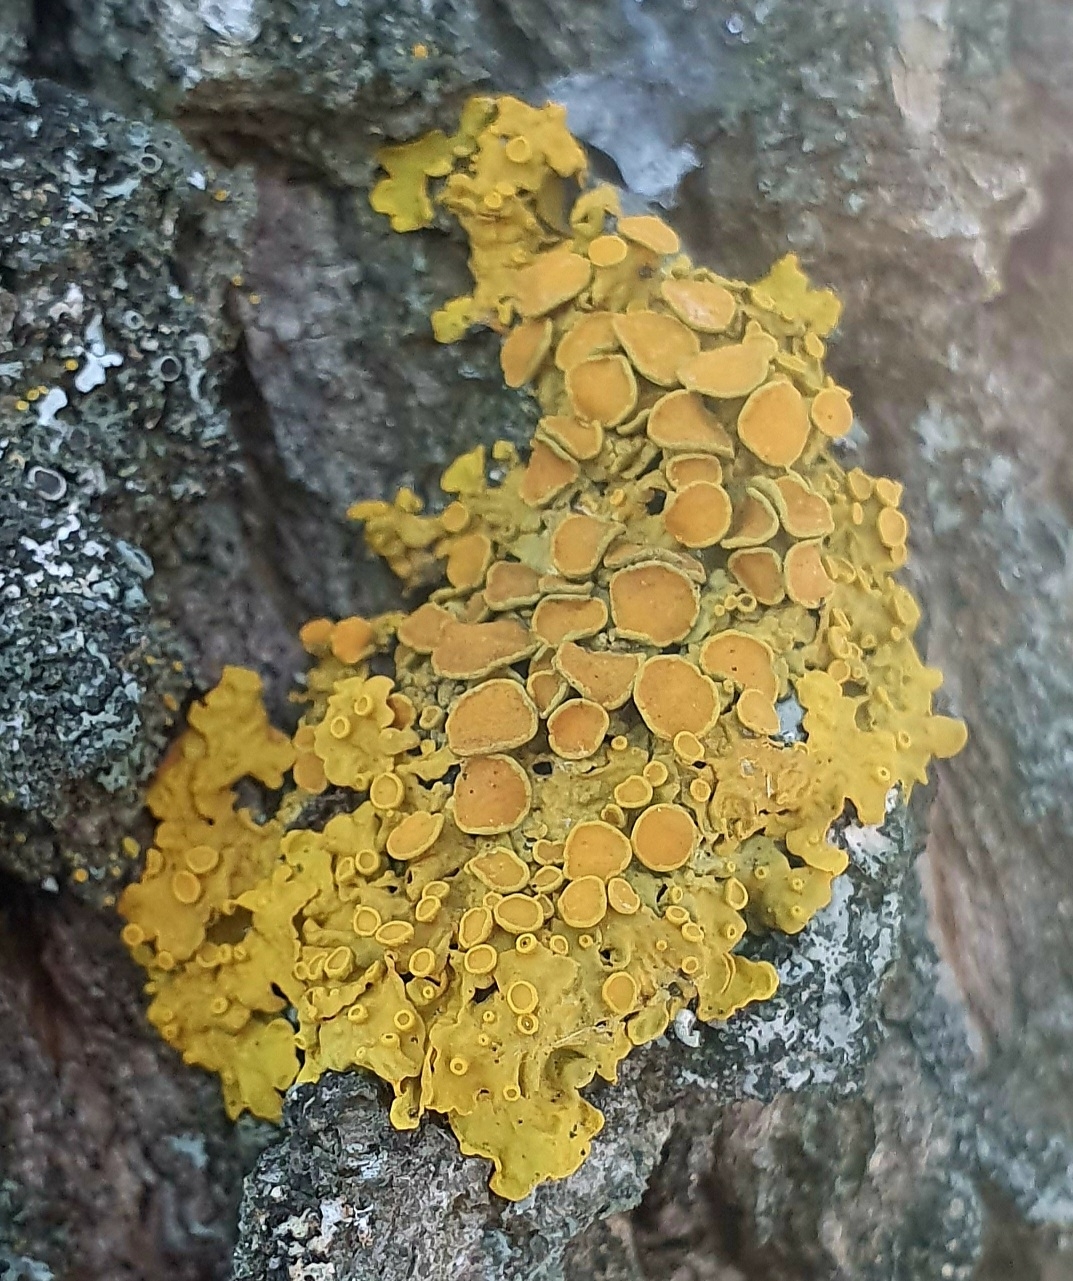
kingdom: Fungi
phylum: Ascomycota
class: Lecanoromycetes
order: Teloschistales
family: Teloschistaceae
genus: Xanthoria
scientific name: Xanthoria parietina
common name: Common orange lichen
